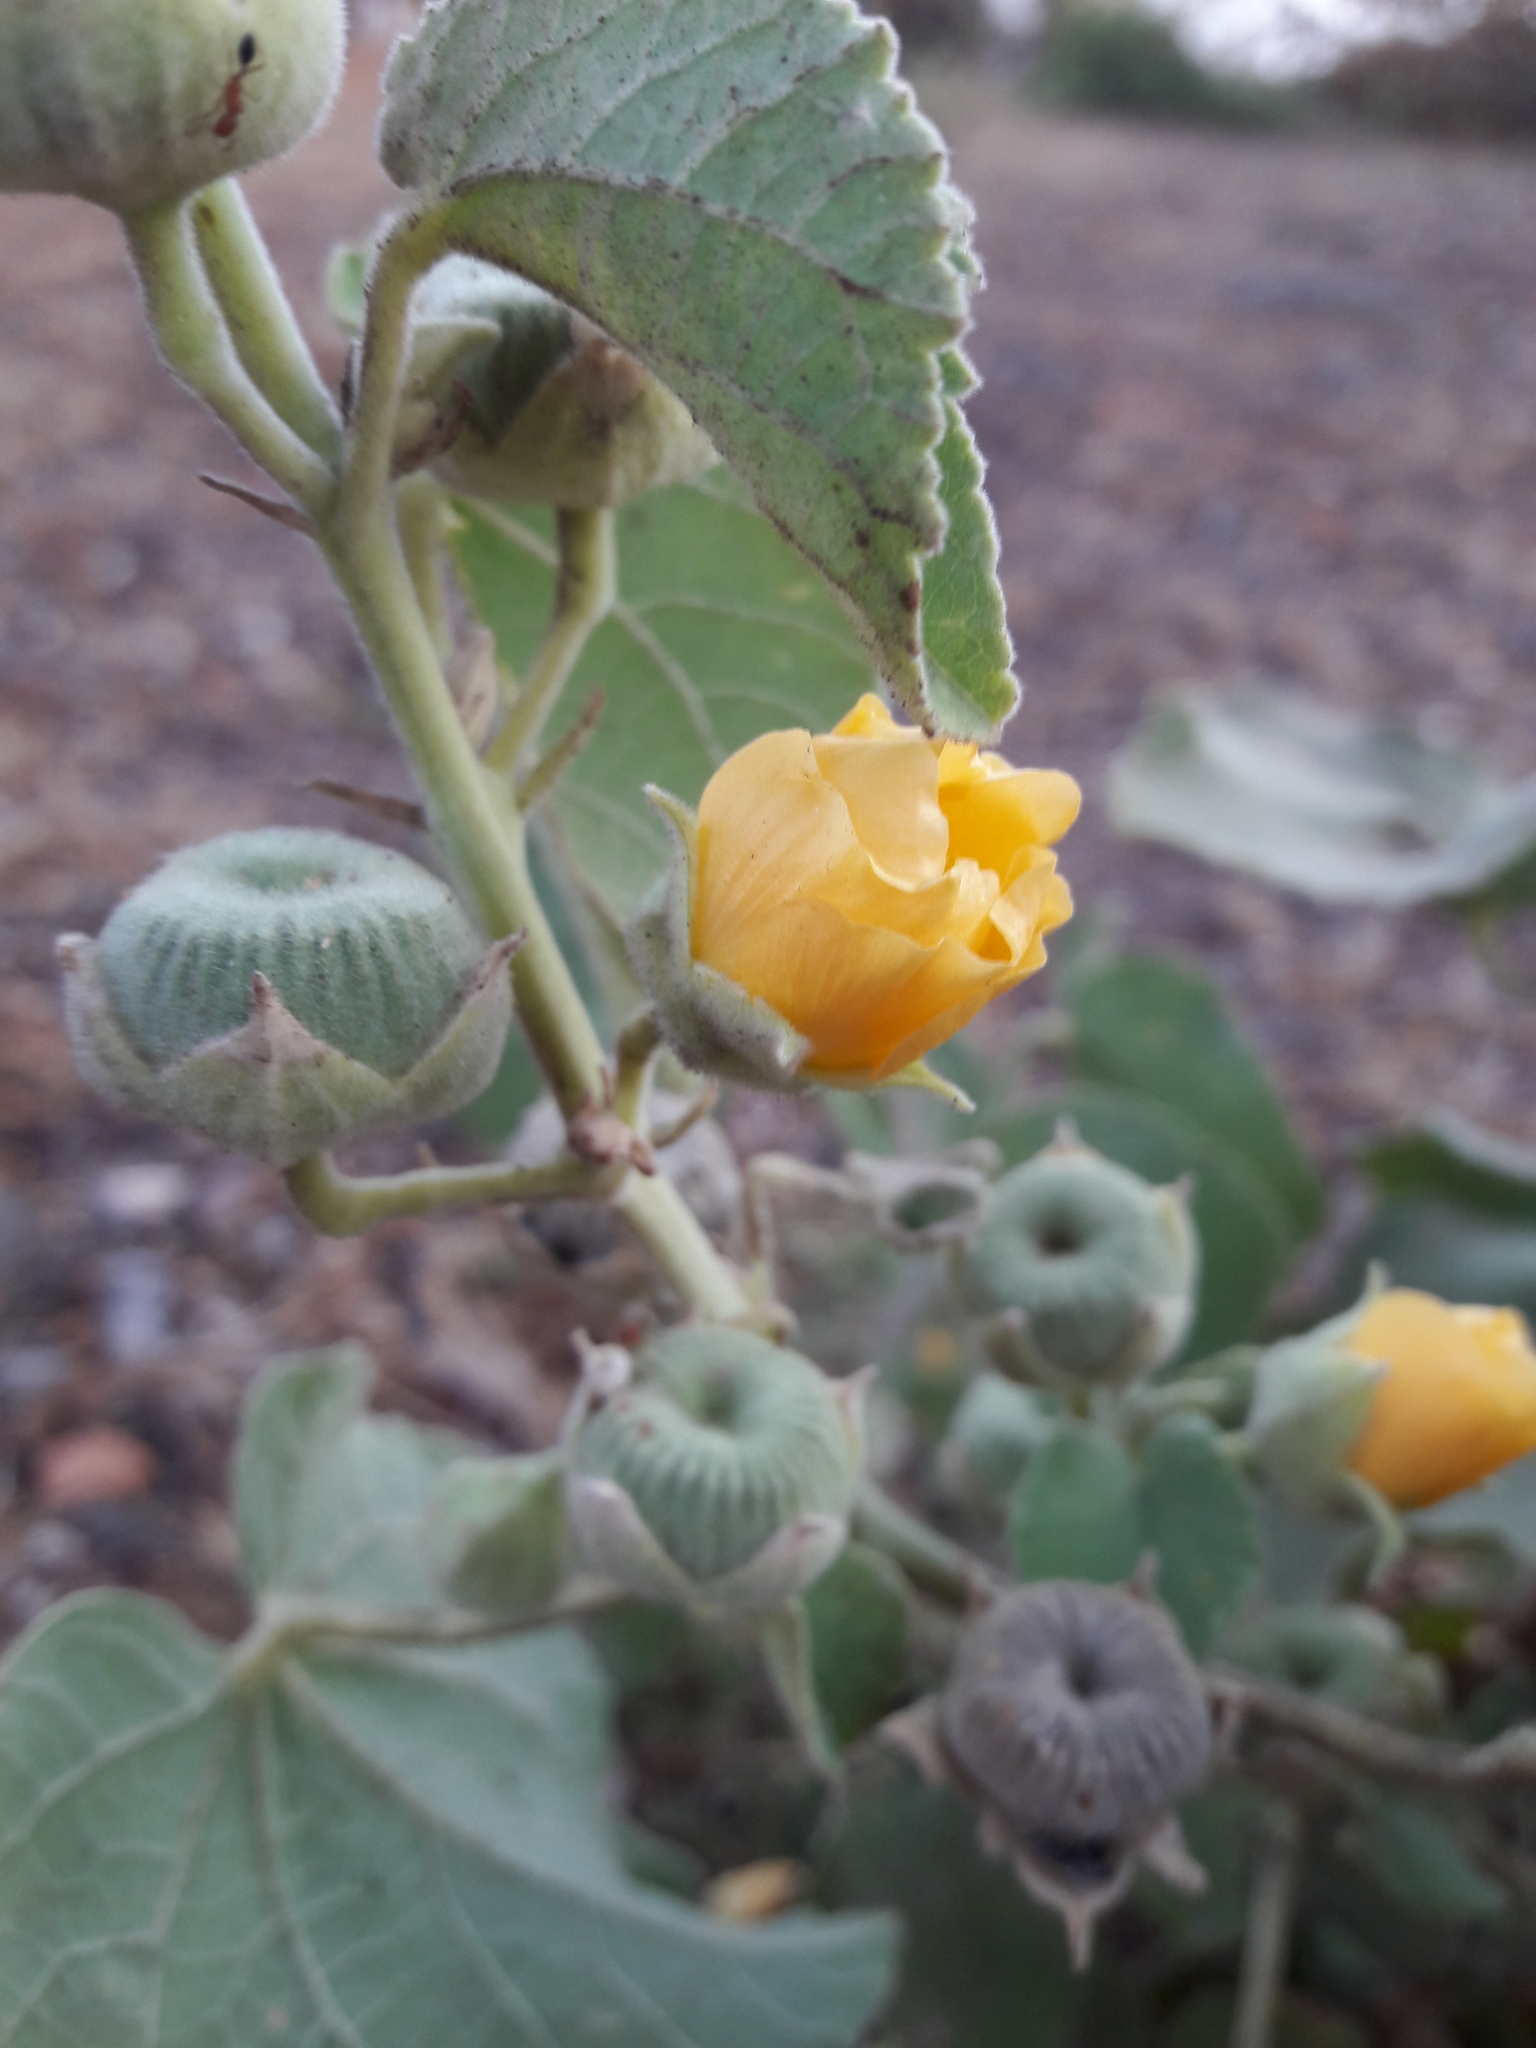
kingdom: Plantae
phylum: Tracheophyta
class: Magnoliopsida
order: Malvales
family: Malvaceae
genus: Abutilon
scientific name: Abutilon pannosum
